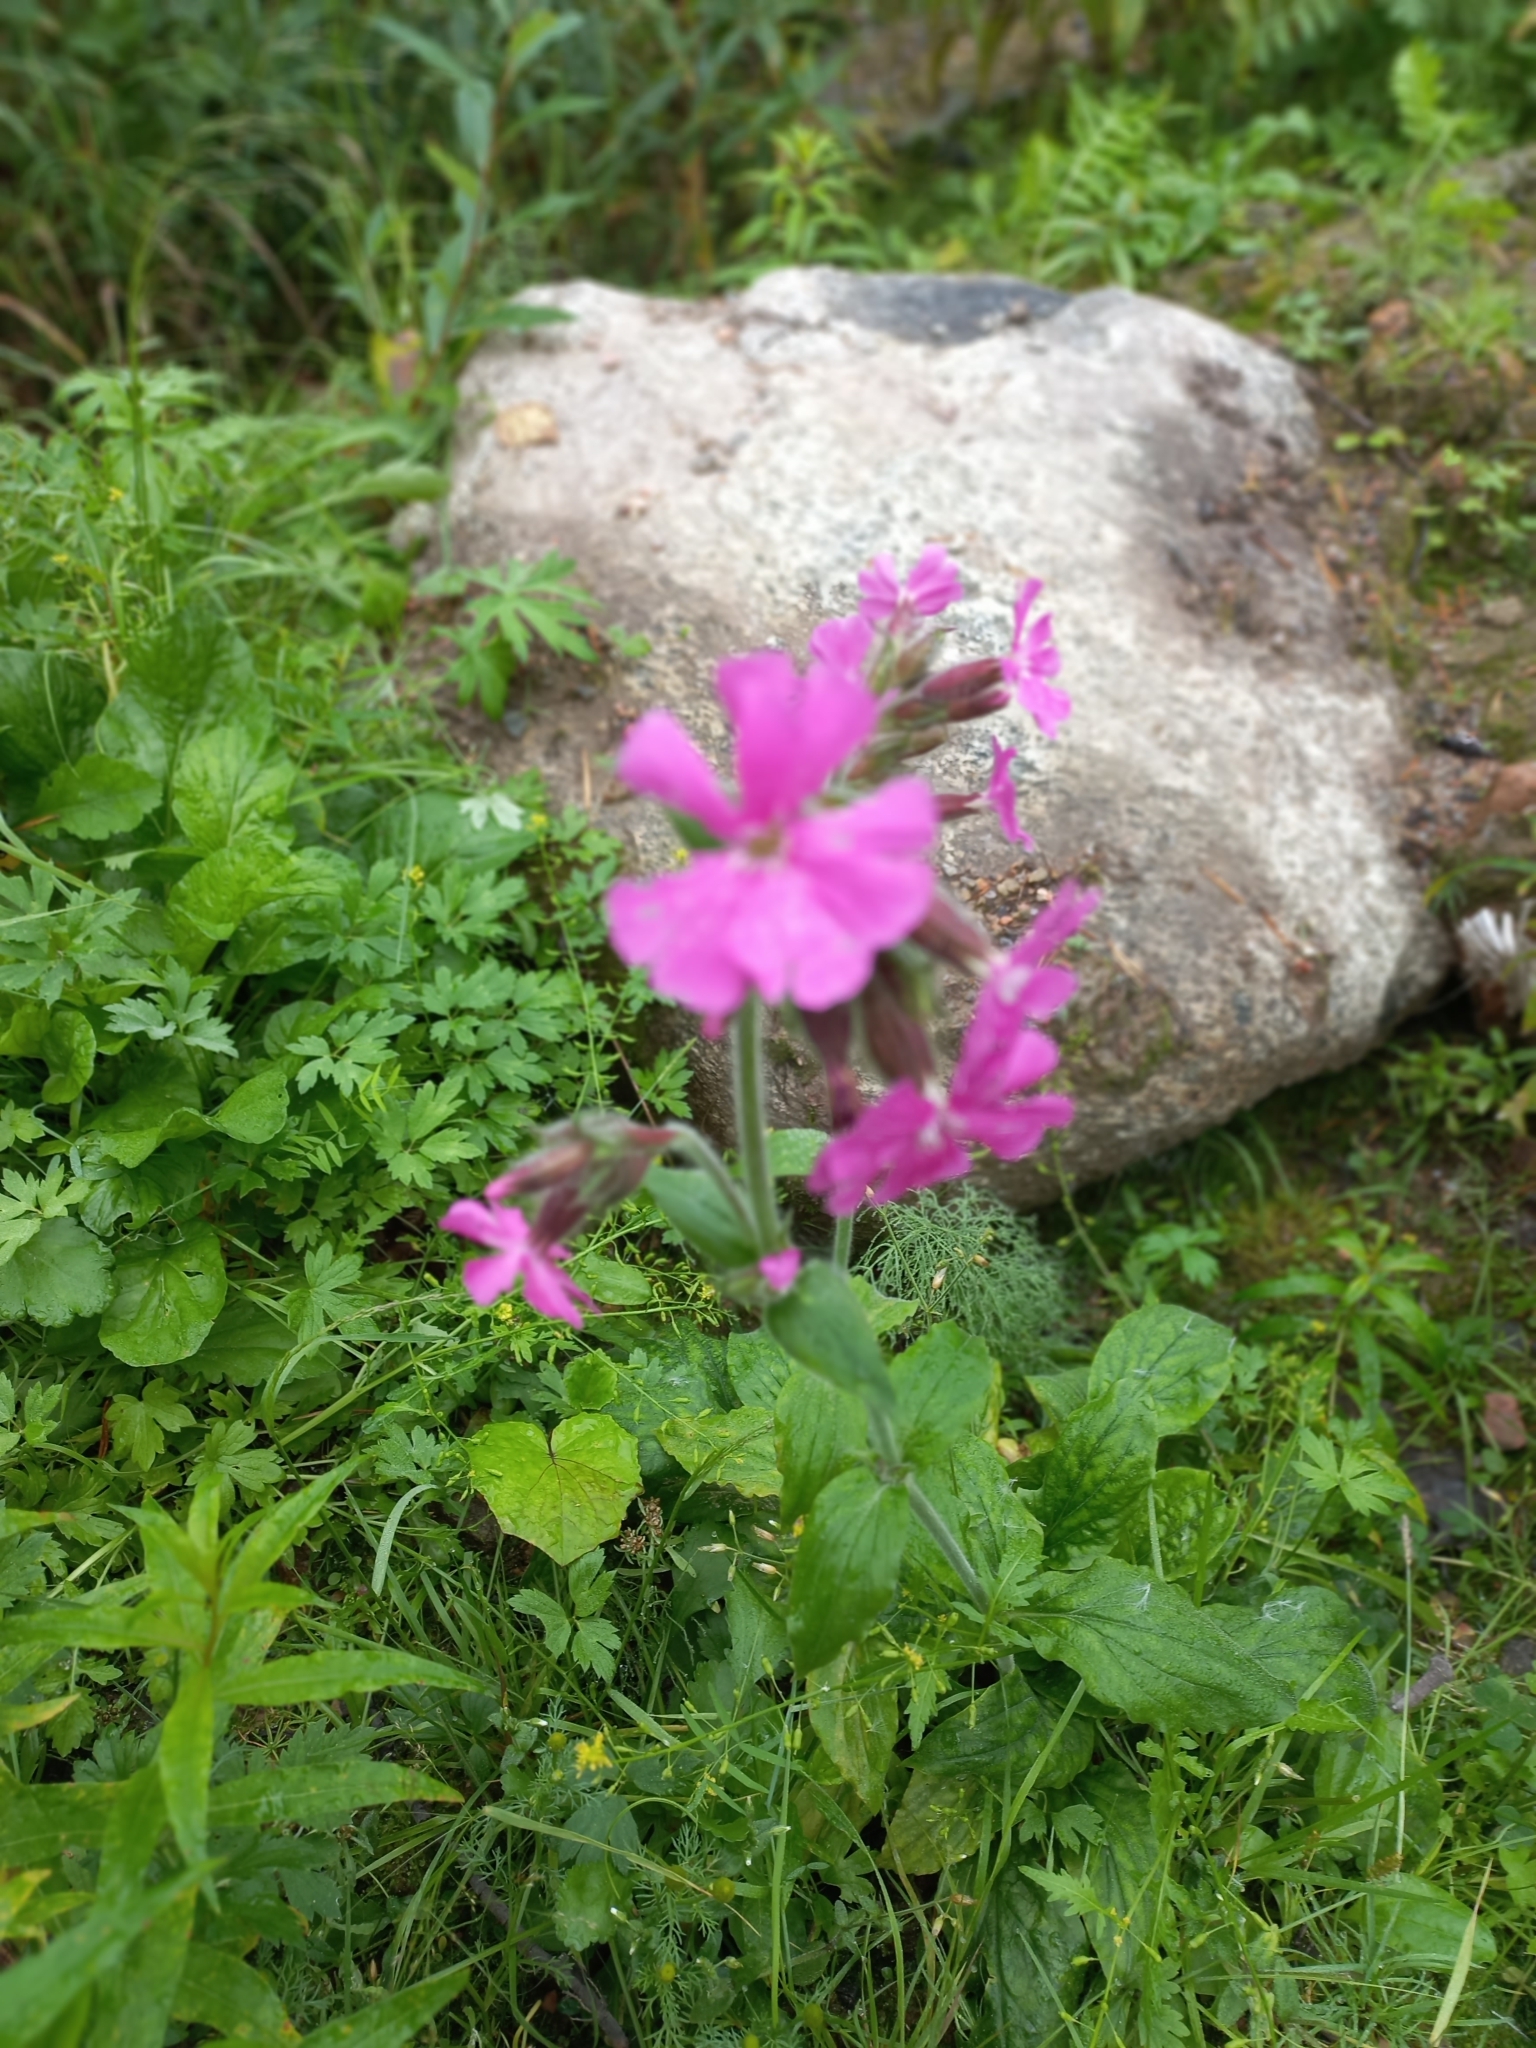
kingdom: Plantae
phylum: Tracheophyta
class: Magnoliopsida
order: Caryophyllales
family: Caryophyllaceae
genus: Silene
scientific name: Silene dioica
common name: Red campion
